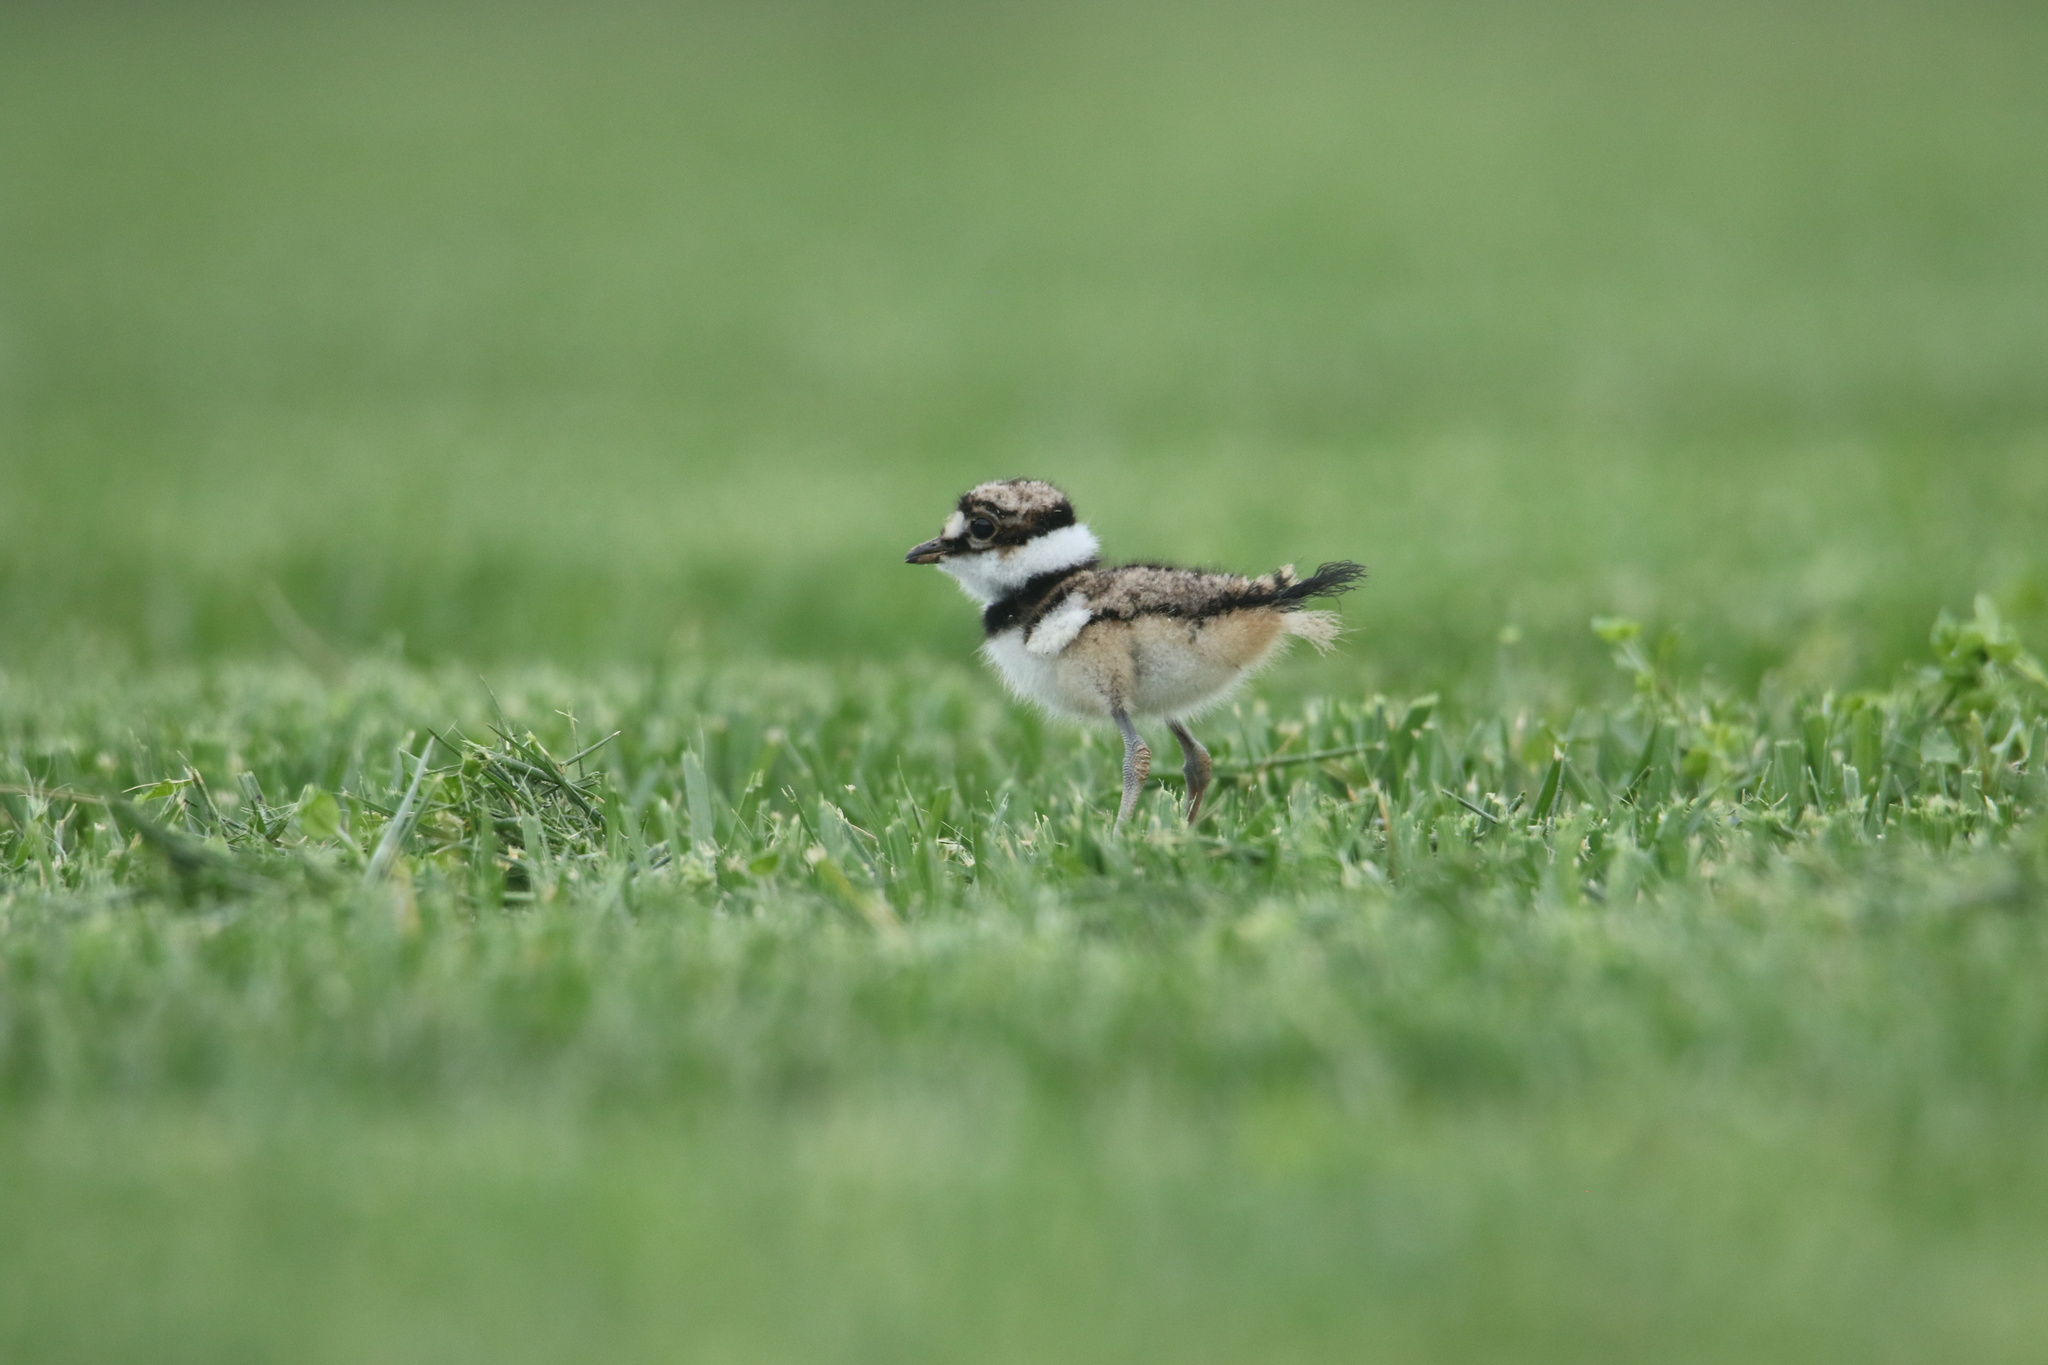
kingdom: Animalia
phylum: Chordata
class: Aves
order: Charadriiformes
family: Charadriidae
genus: Charadrius
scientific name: Charadrius vociferus
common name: Killdeer
